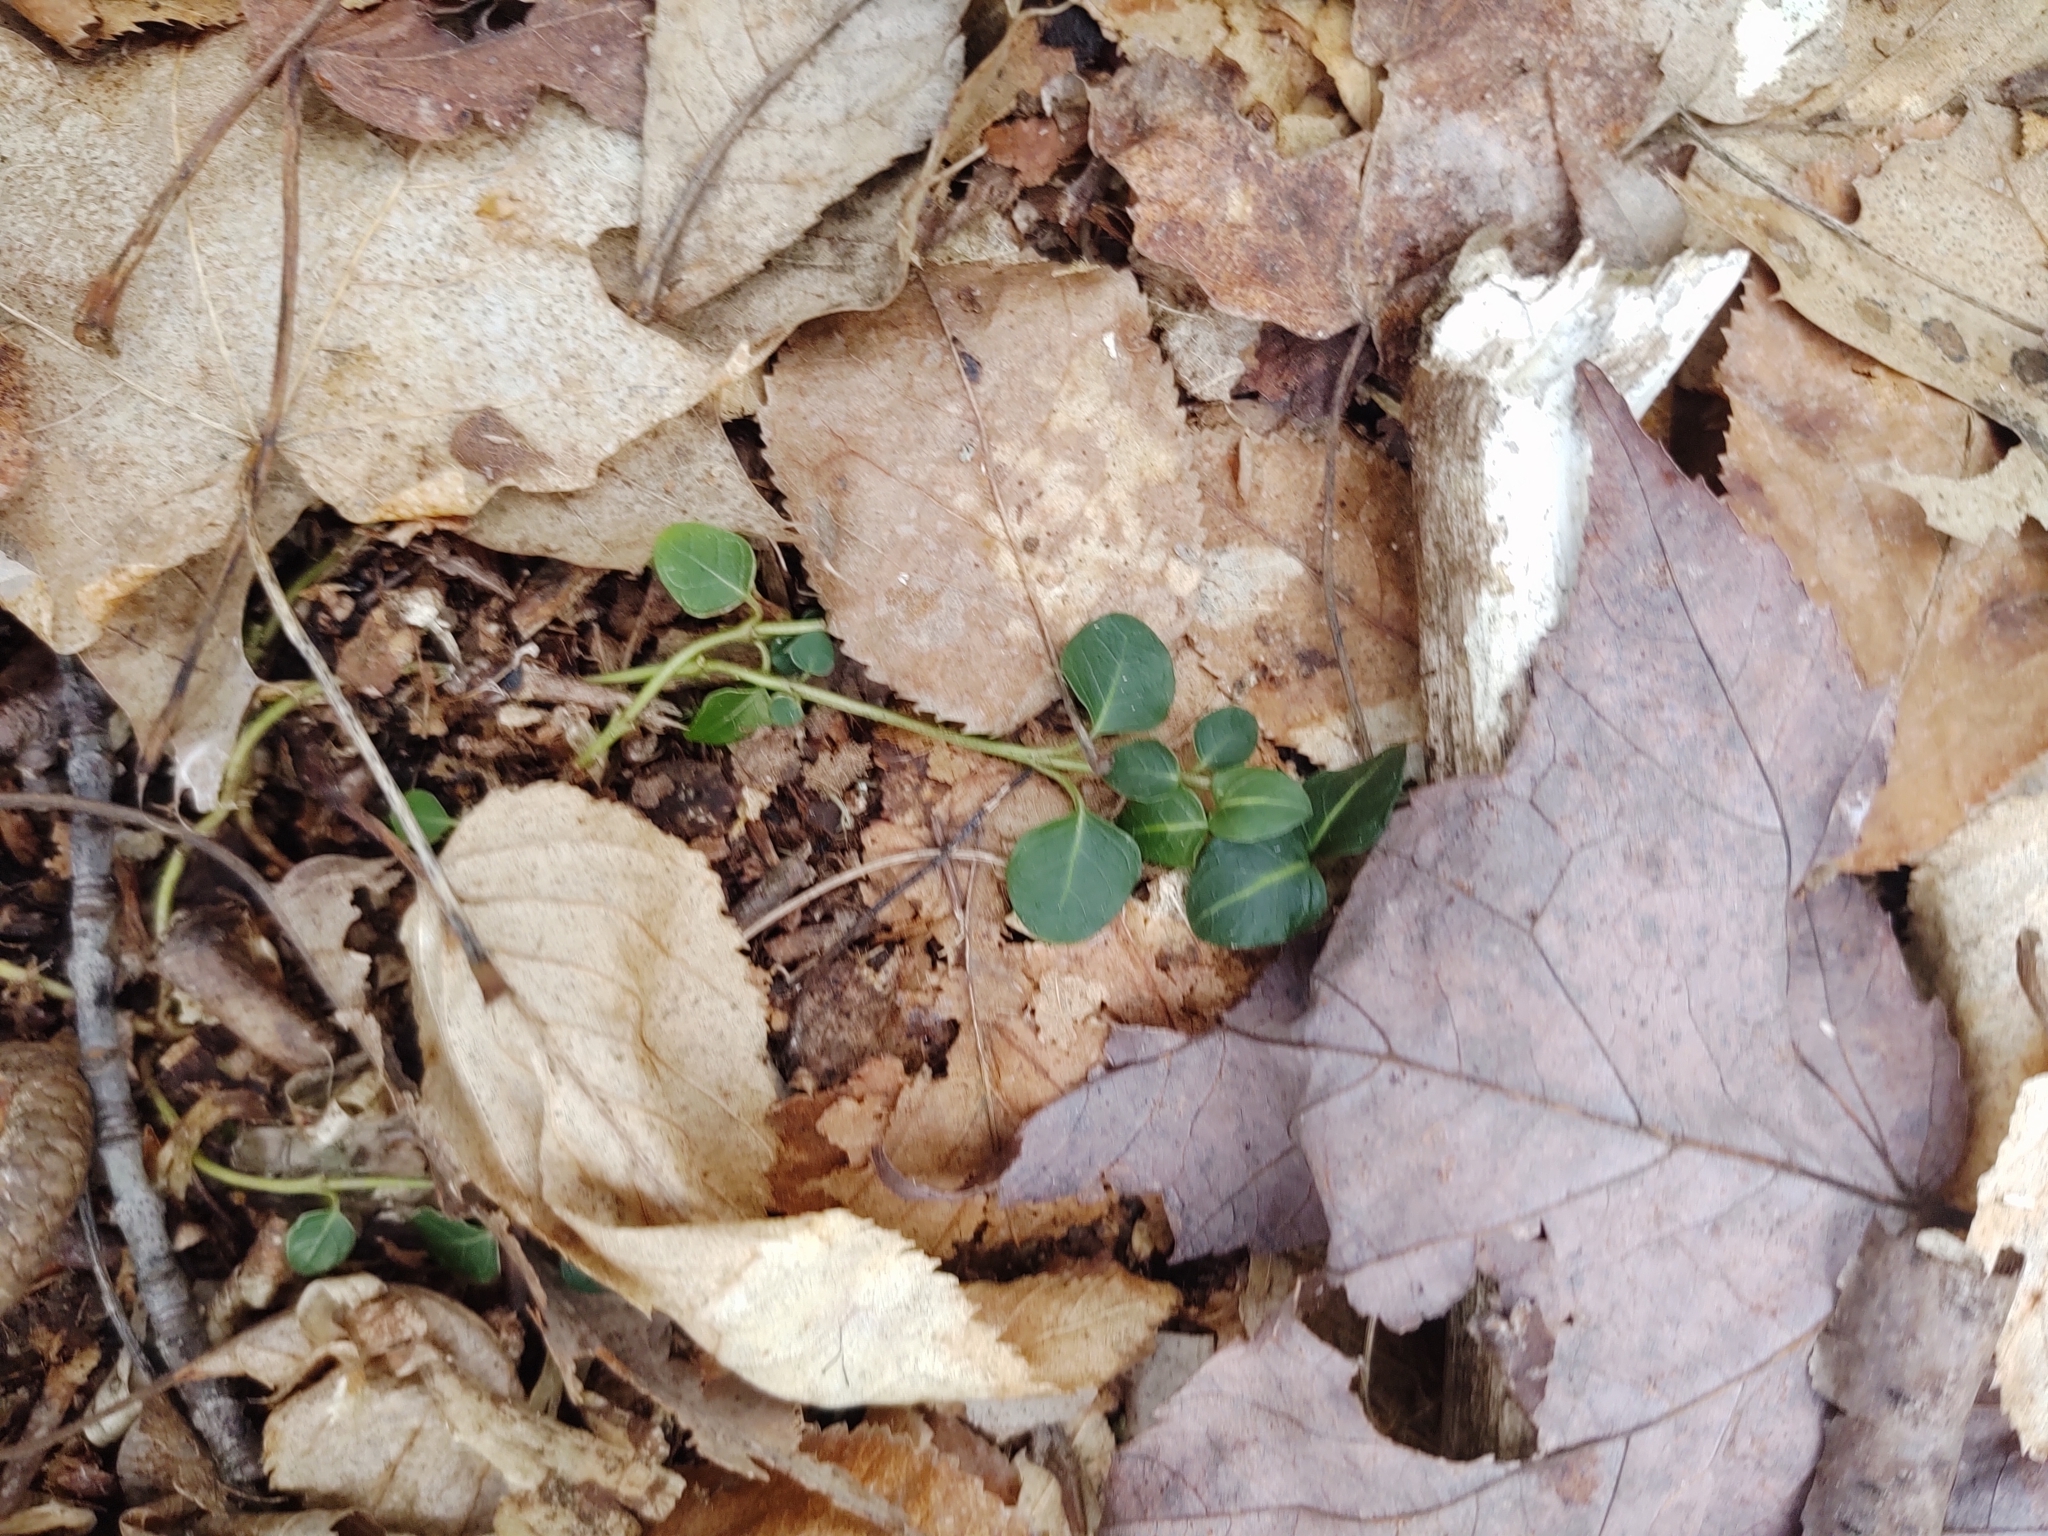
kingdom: Plantae
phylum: Tracheophyta
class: Magnoliopsida
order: Gentianales
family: Rubiaceae
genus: Mitchella
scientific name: Mitchella repens
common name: Partridge-berry
